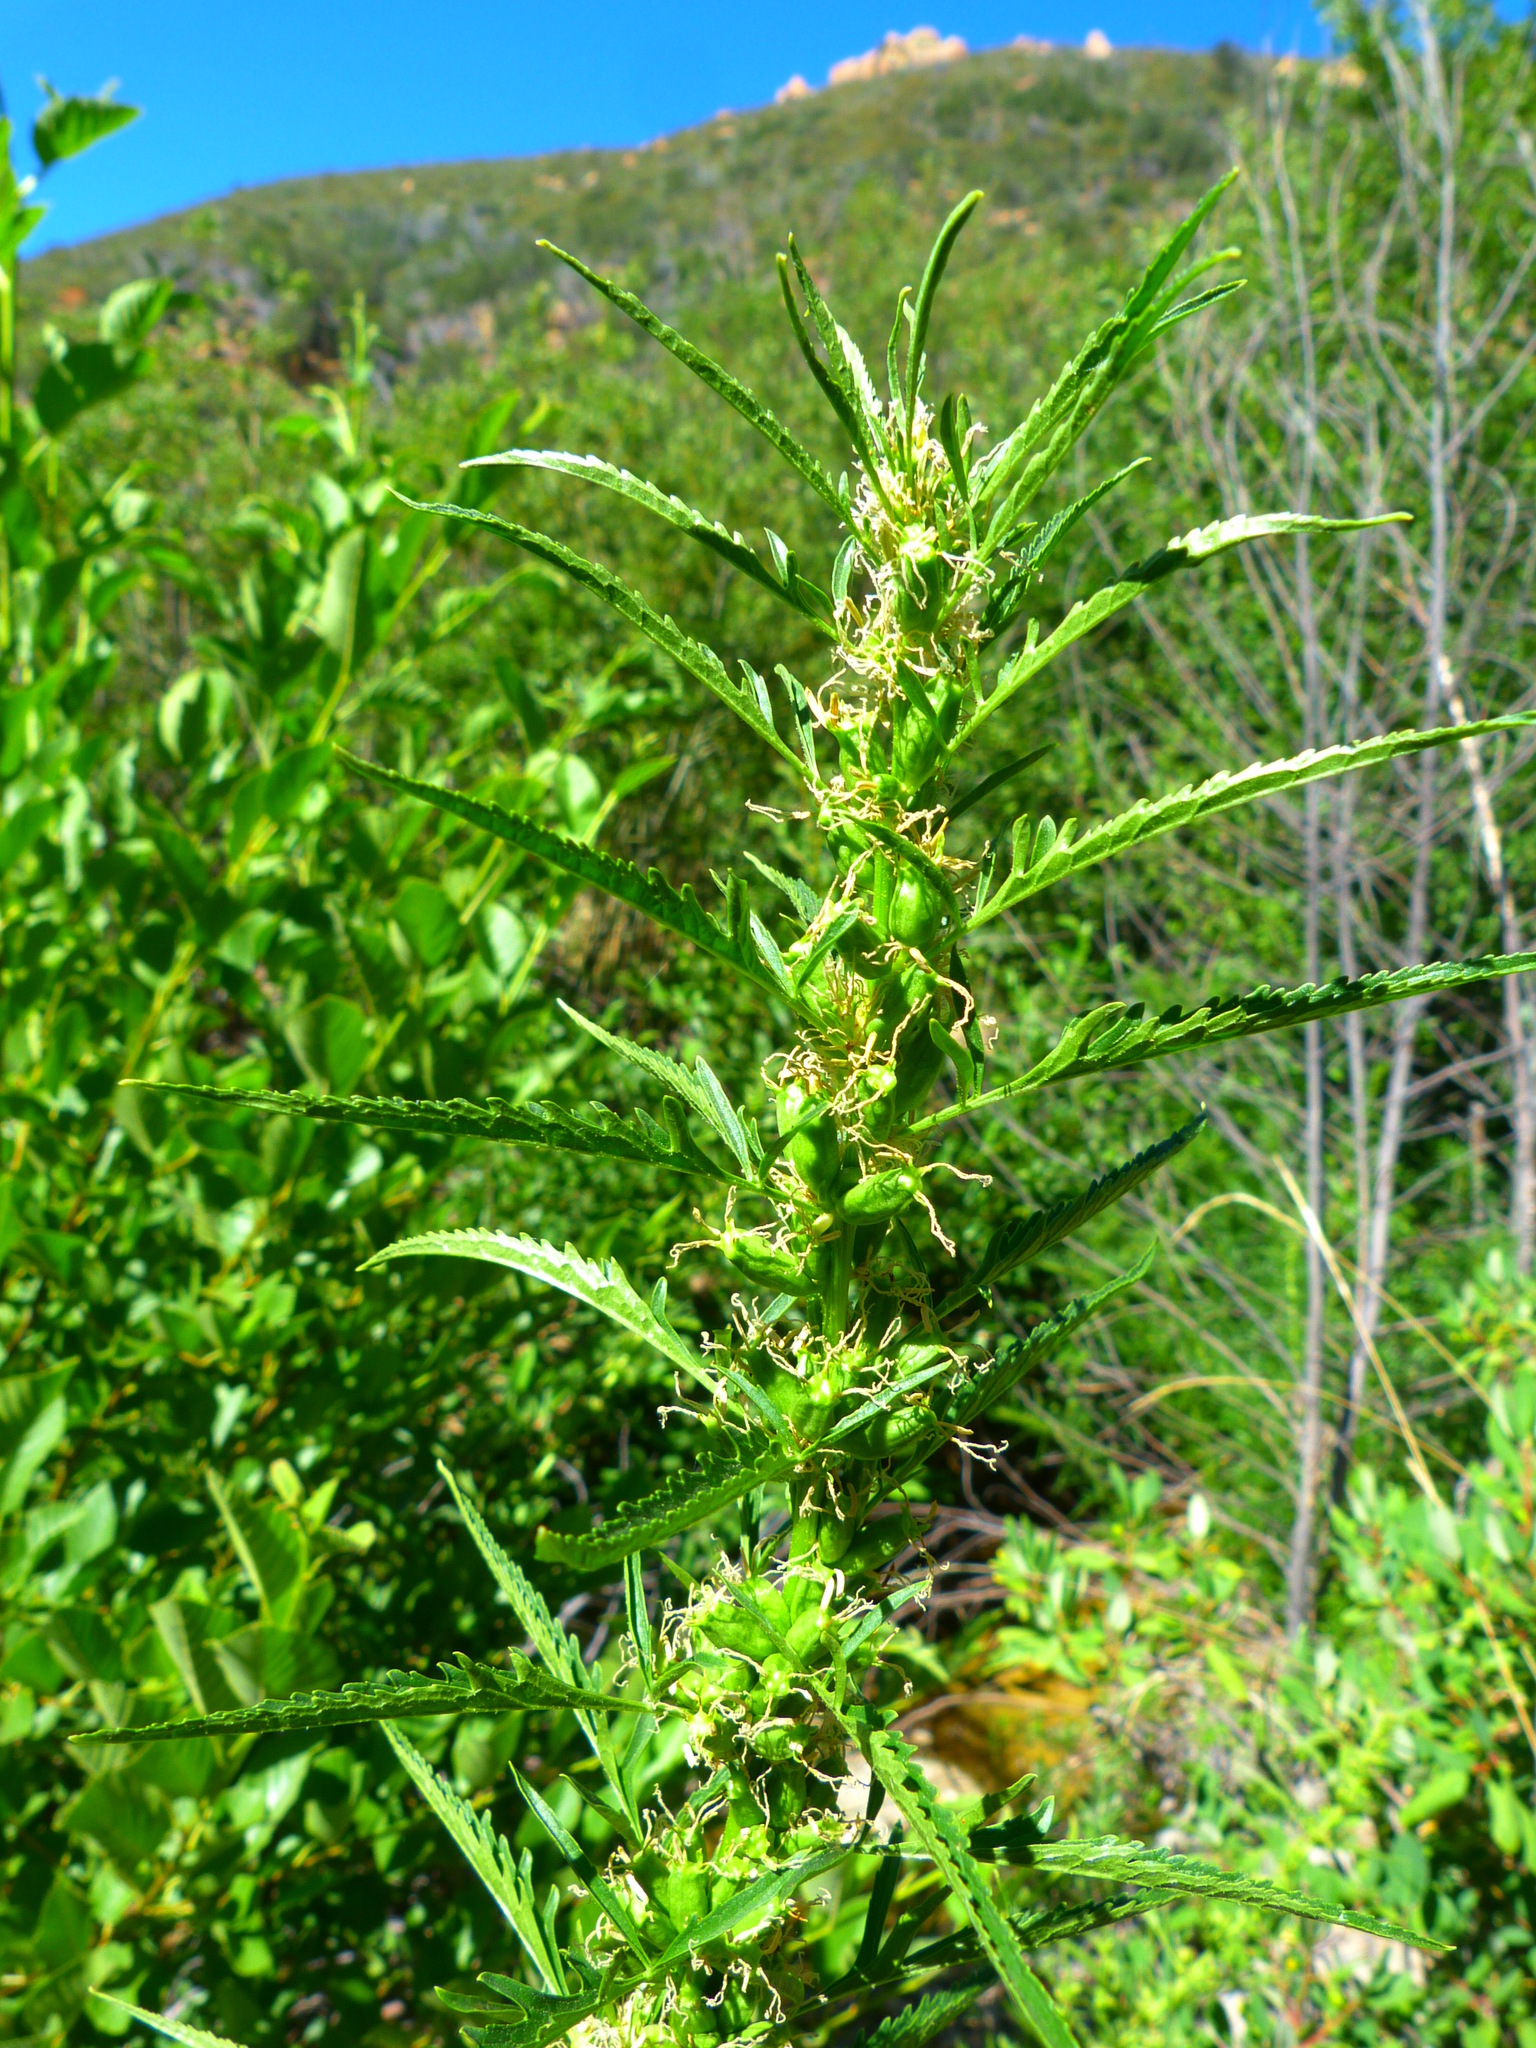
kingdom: Plantae
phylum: Tracheophyta
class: Magnoliopsida
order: Cucurbitales
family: Datiscaceae
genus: Datisca
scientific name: Datisca glomerata
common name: Durango-root
